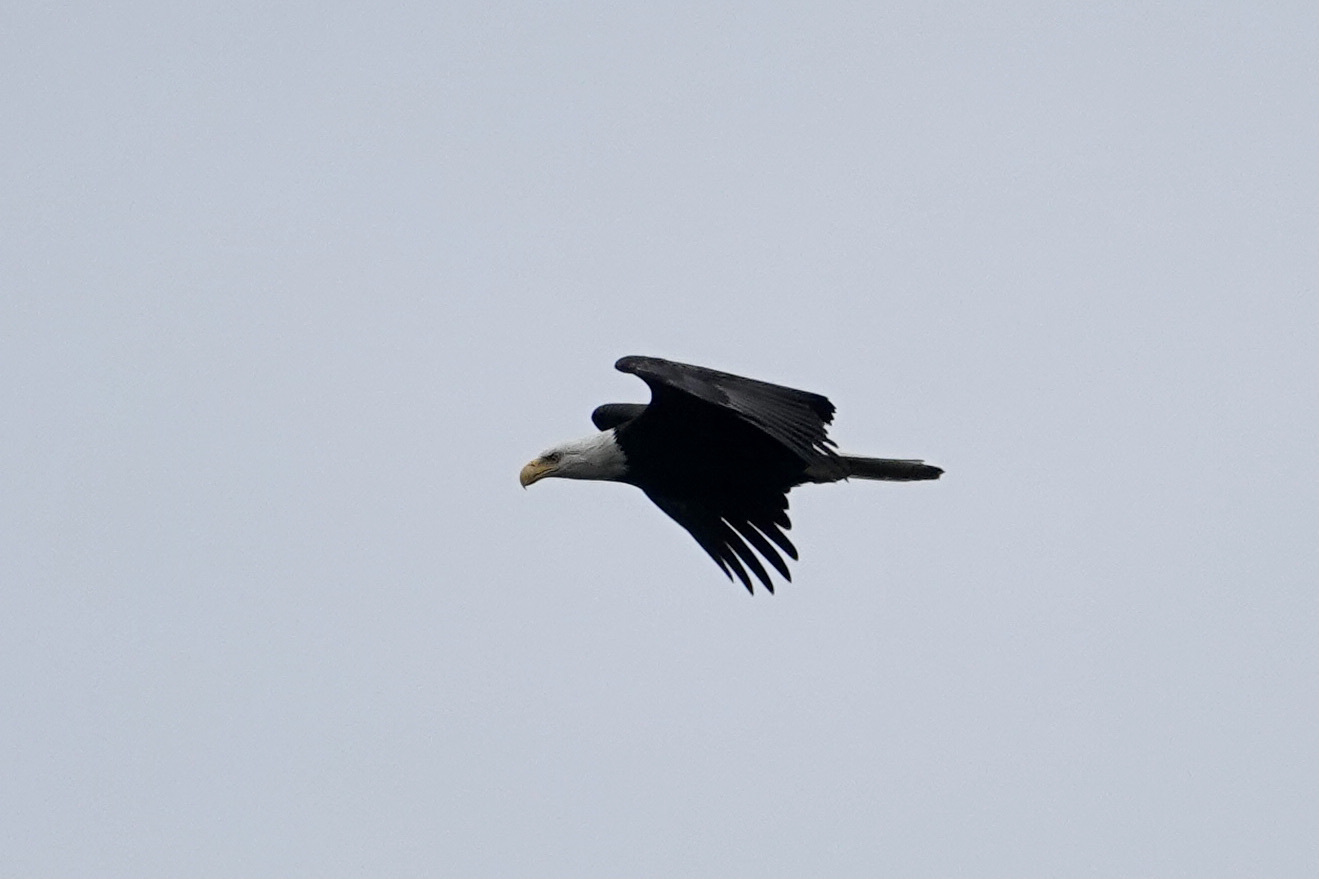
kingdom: Animalia
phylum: Chordata
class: Aves
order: Accipitriformes
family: Accipitridae
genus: Haliaeetus
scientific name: Haliaeetus leucocephalus
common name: Bald eagle
